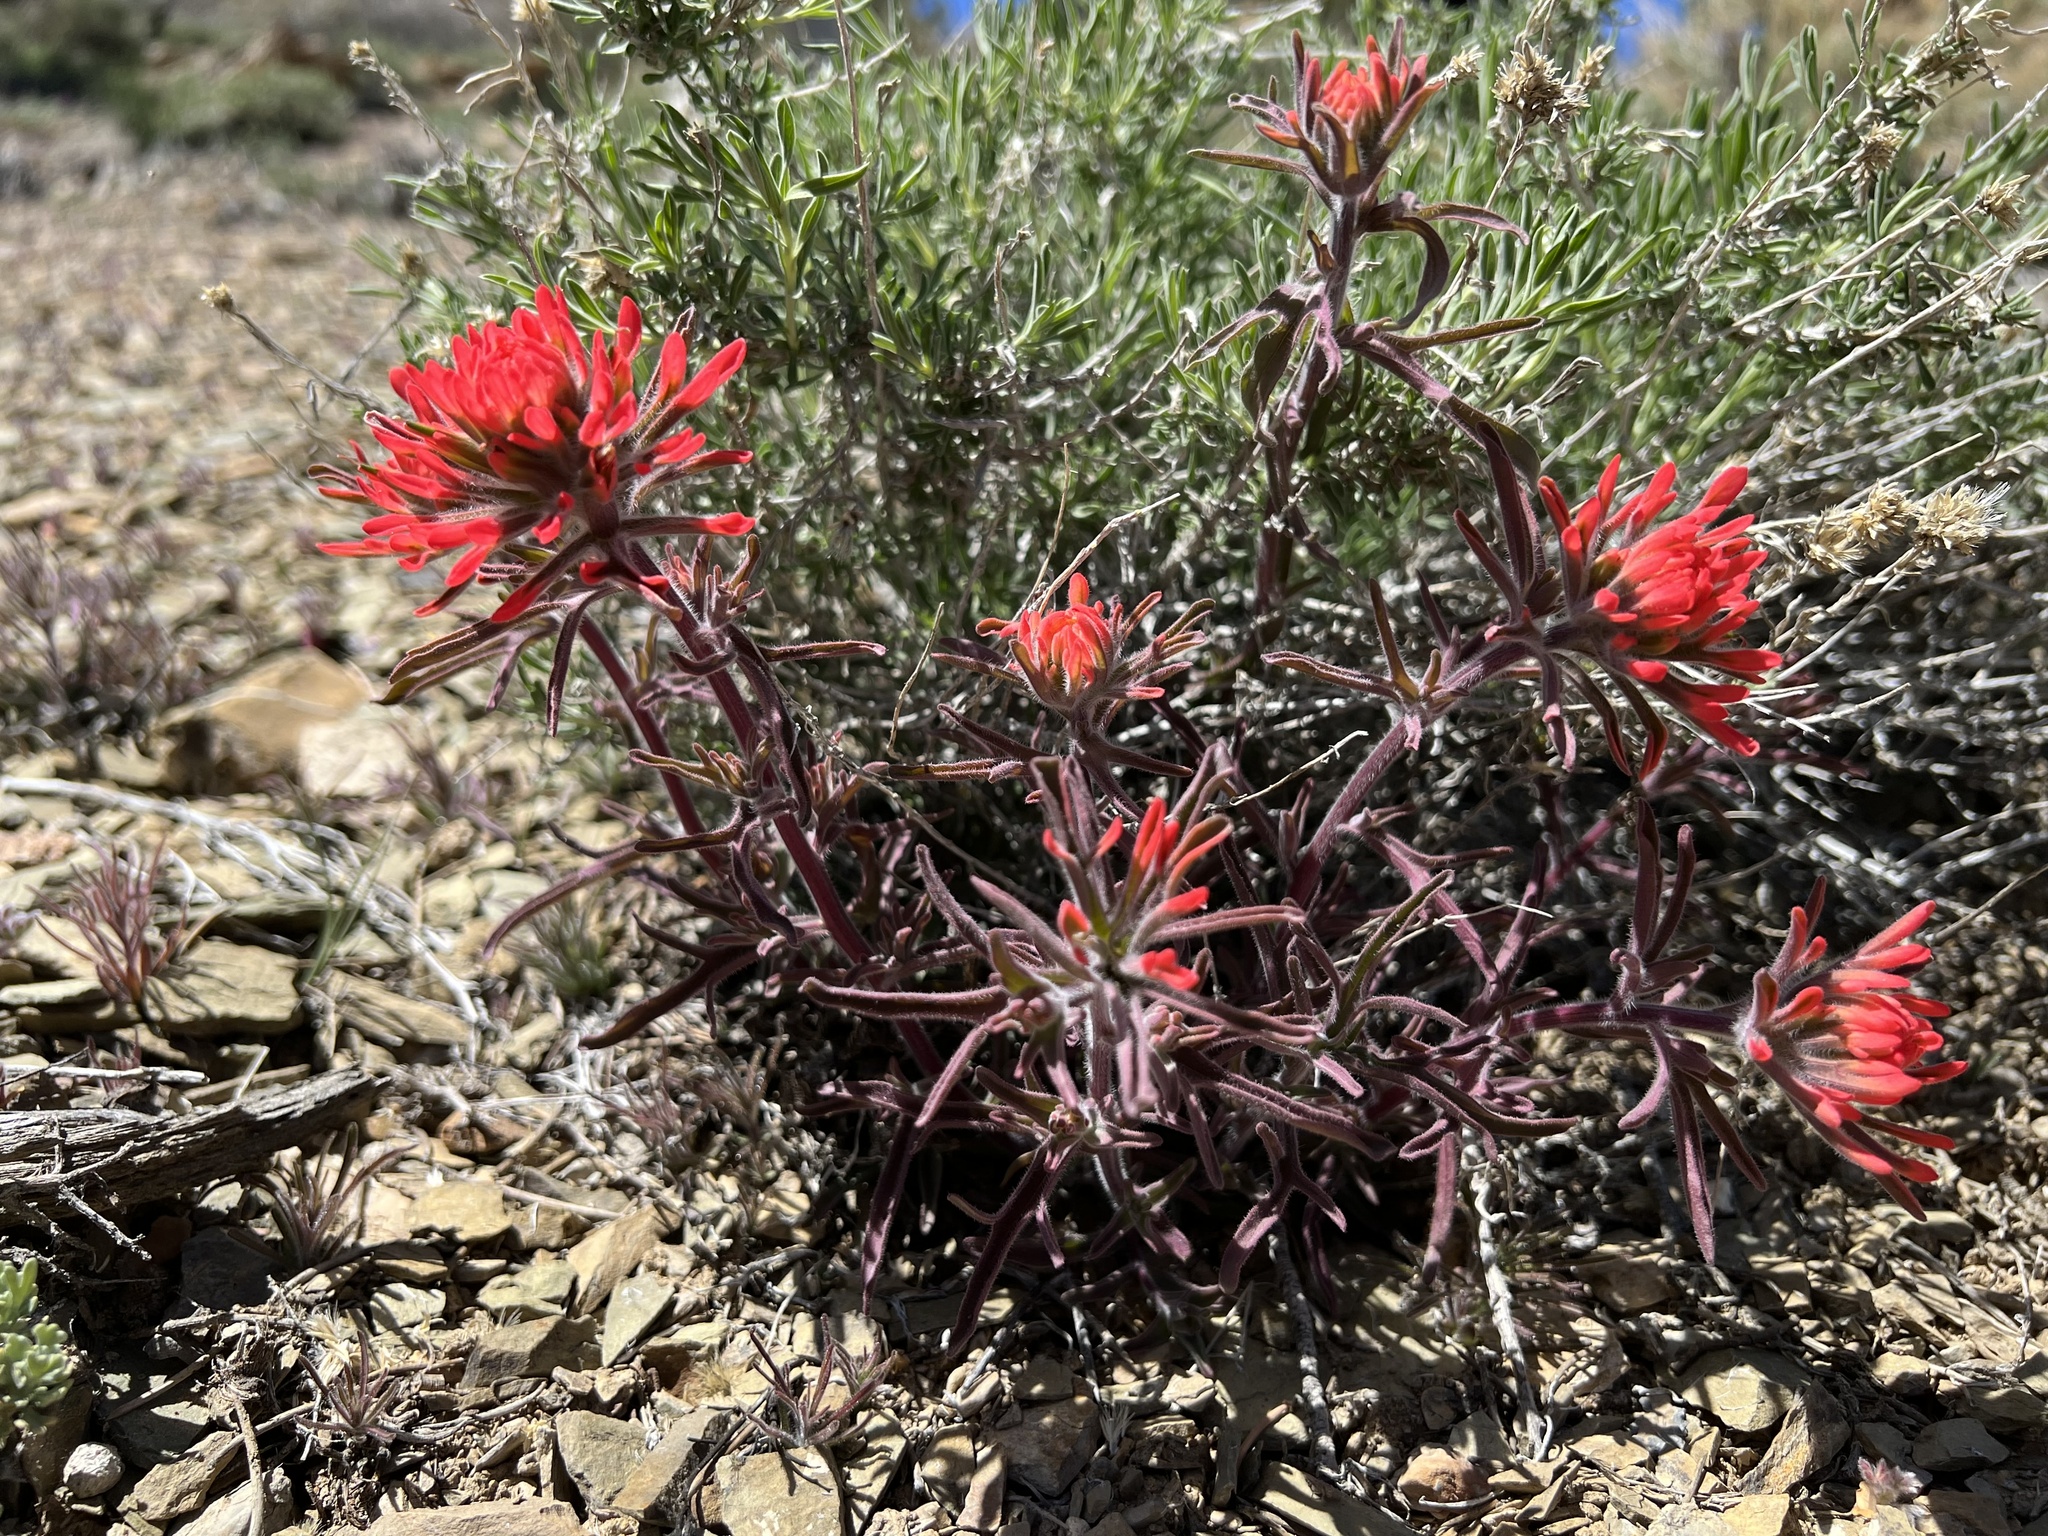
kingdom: Plantae
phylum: Tracheophyta
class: Magnoliopsida
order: Lamiales
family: Orobanchaceae
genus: Castilleja
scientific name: Castilleja chromosa
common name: Desert paintbrush
